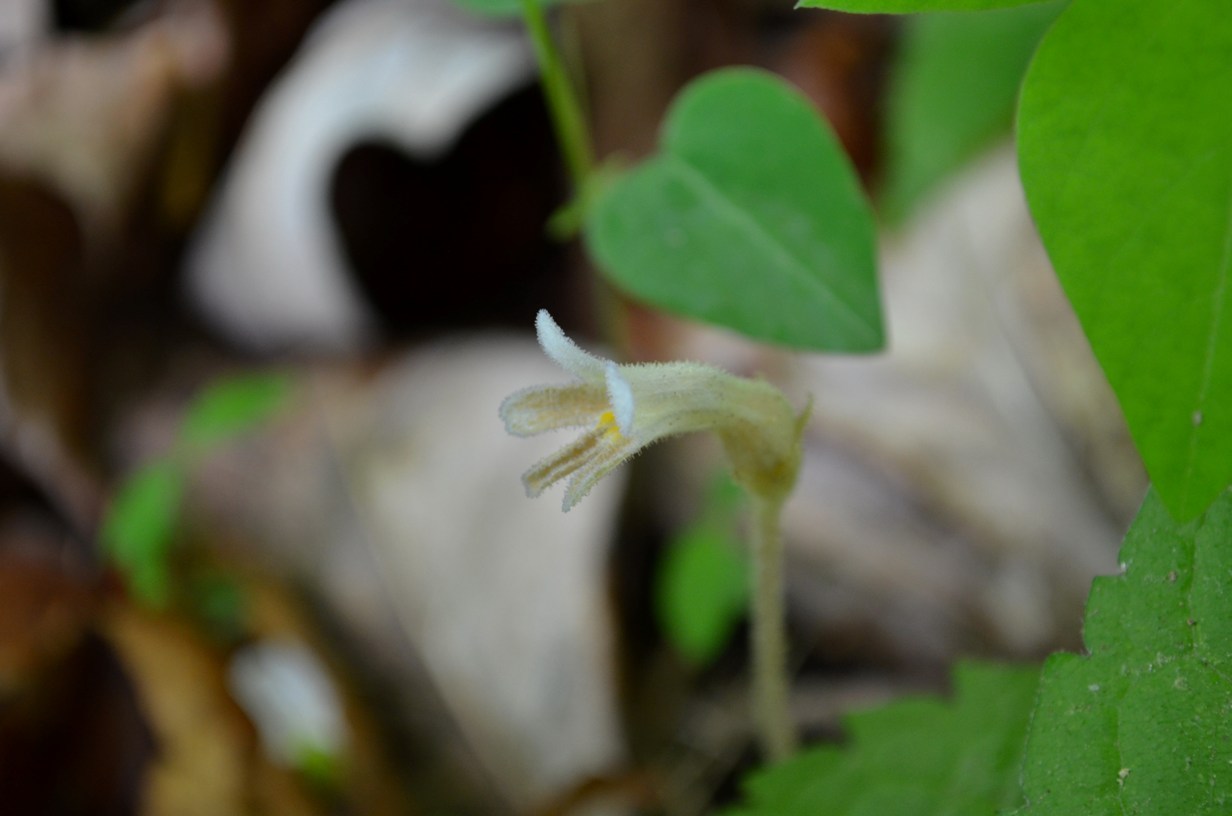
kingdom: Plantae
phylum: Tracheophyta
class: Magnoliopsida
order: Lamiales
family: Orobanchaceae
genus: Aphyllon
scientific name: Aphyllon uniflorum
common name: One-flowered broomrape
